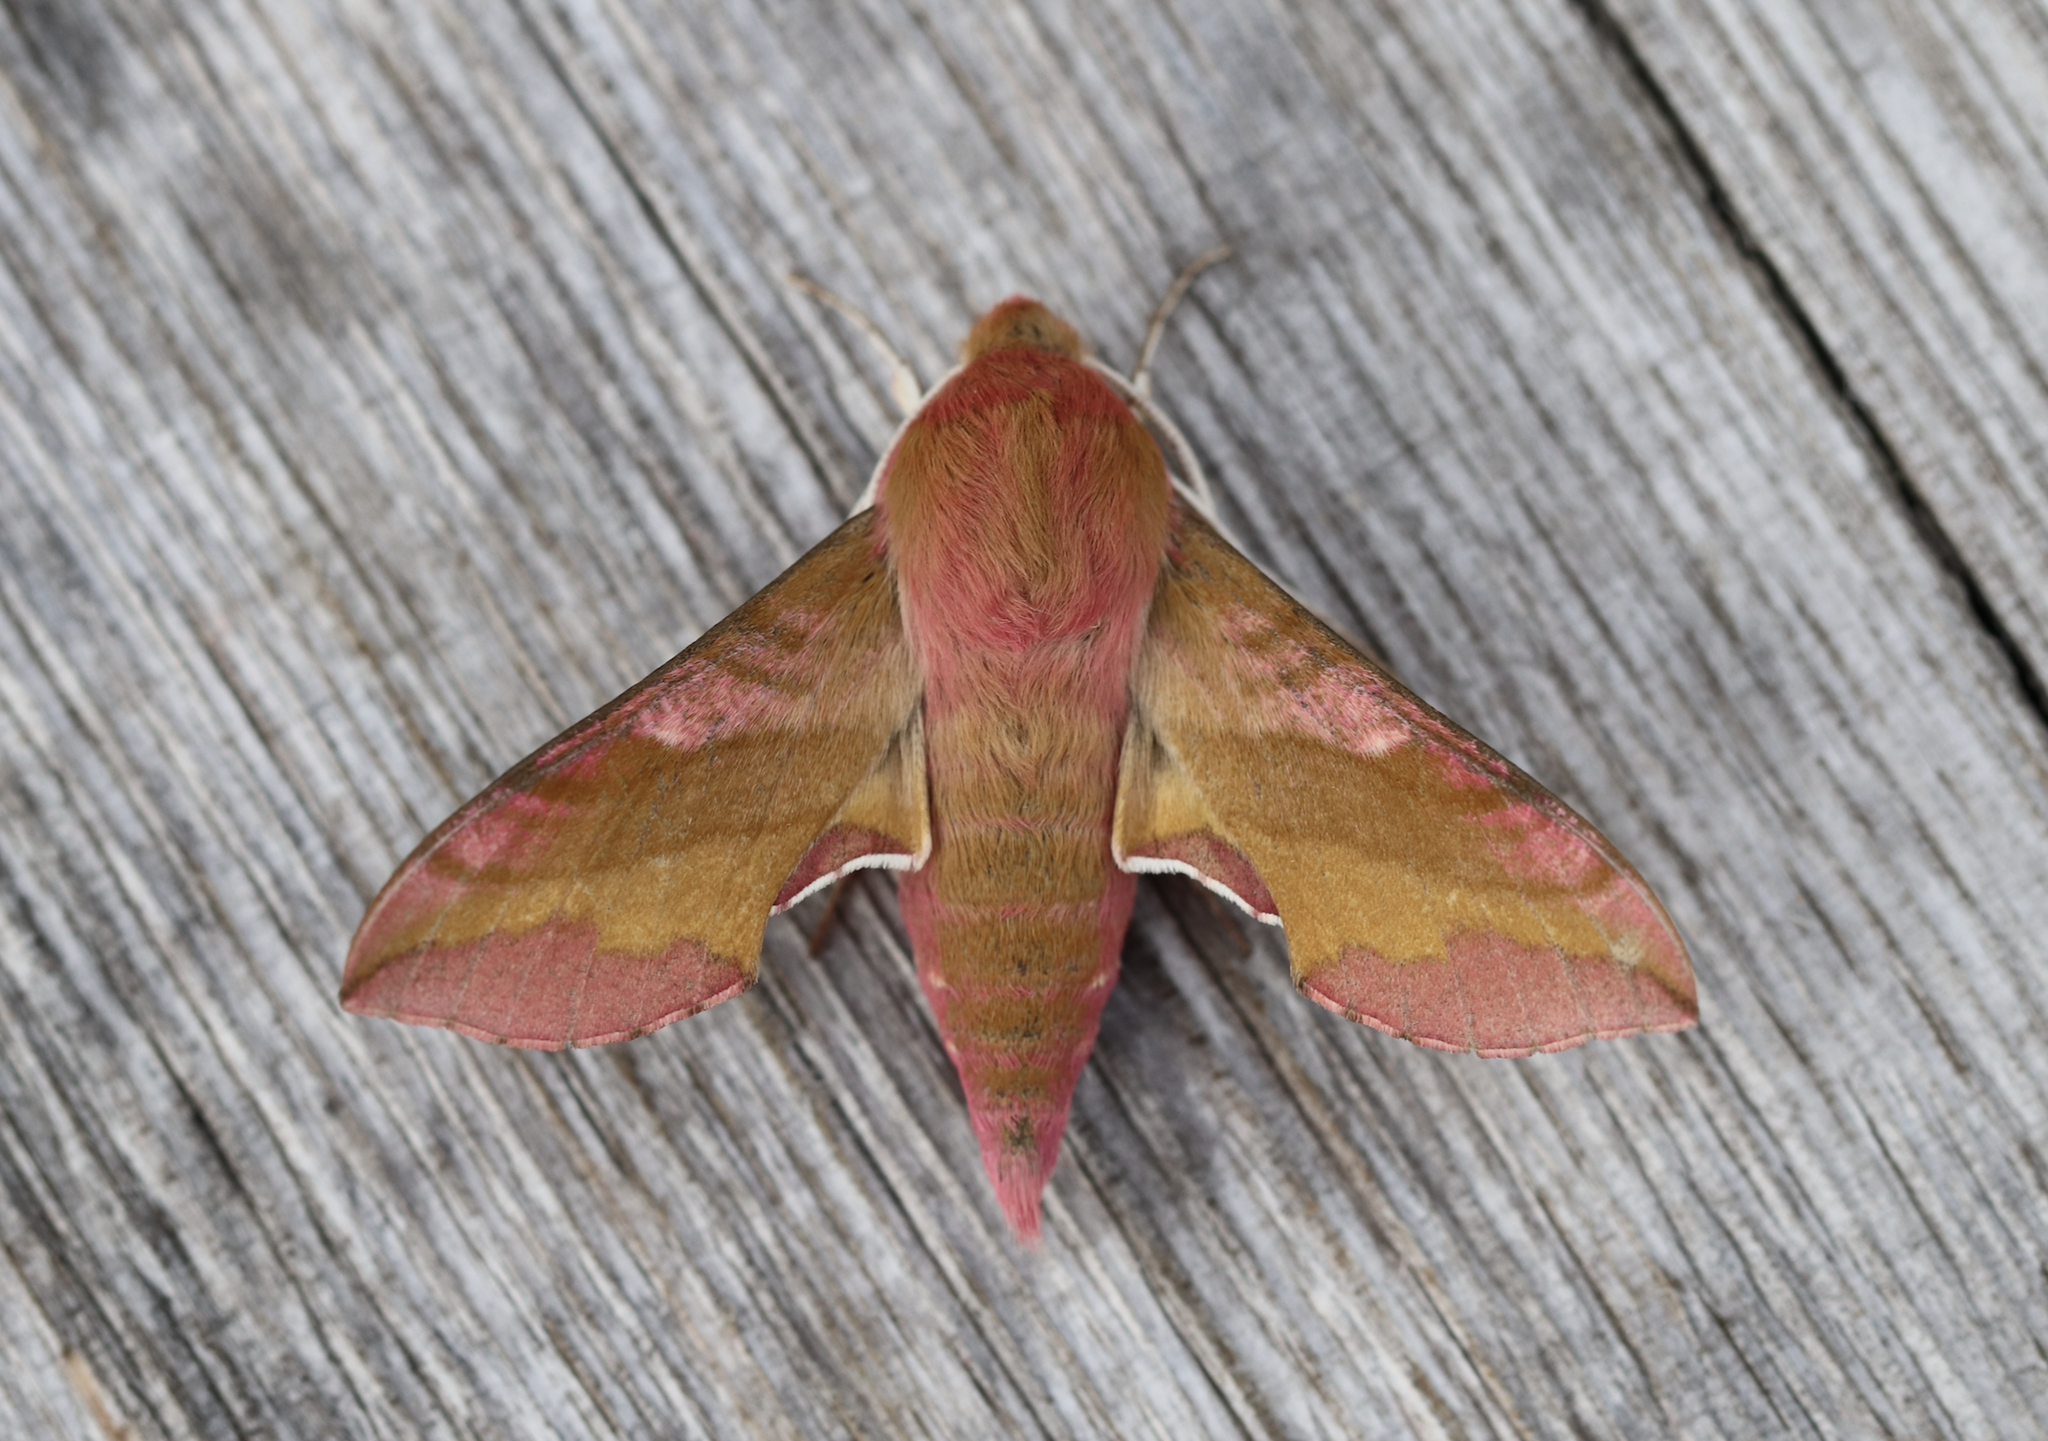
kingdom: Animalia
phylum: Arthropoda
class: Insecta
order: Lepidoptera
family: Sphingidae
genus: Deilephila
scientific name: Deilephila porcellus
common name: Small elephant hawk-moth
